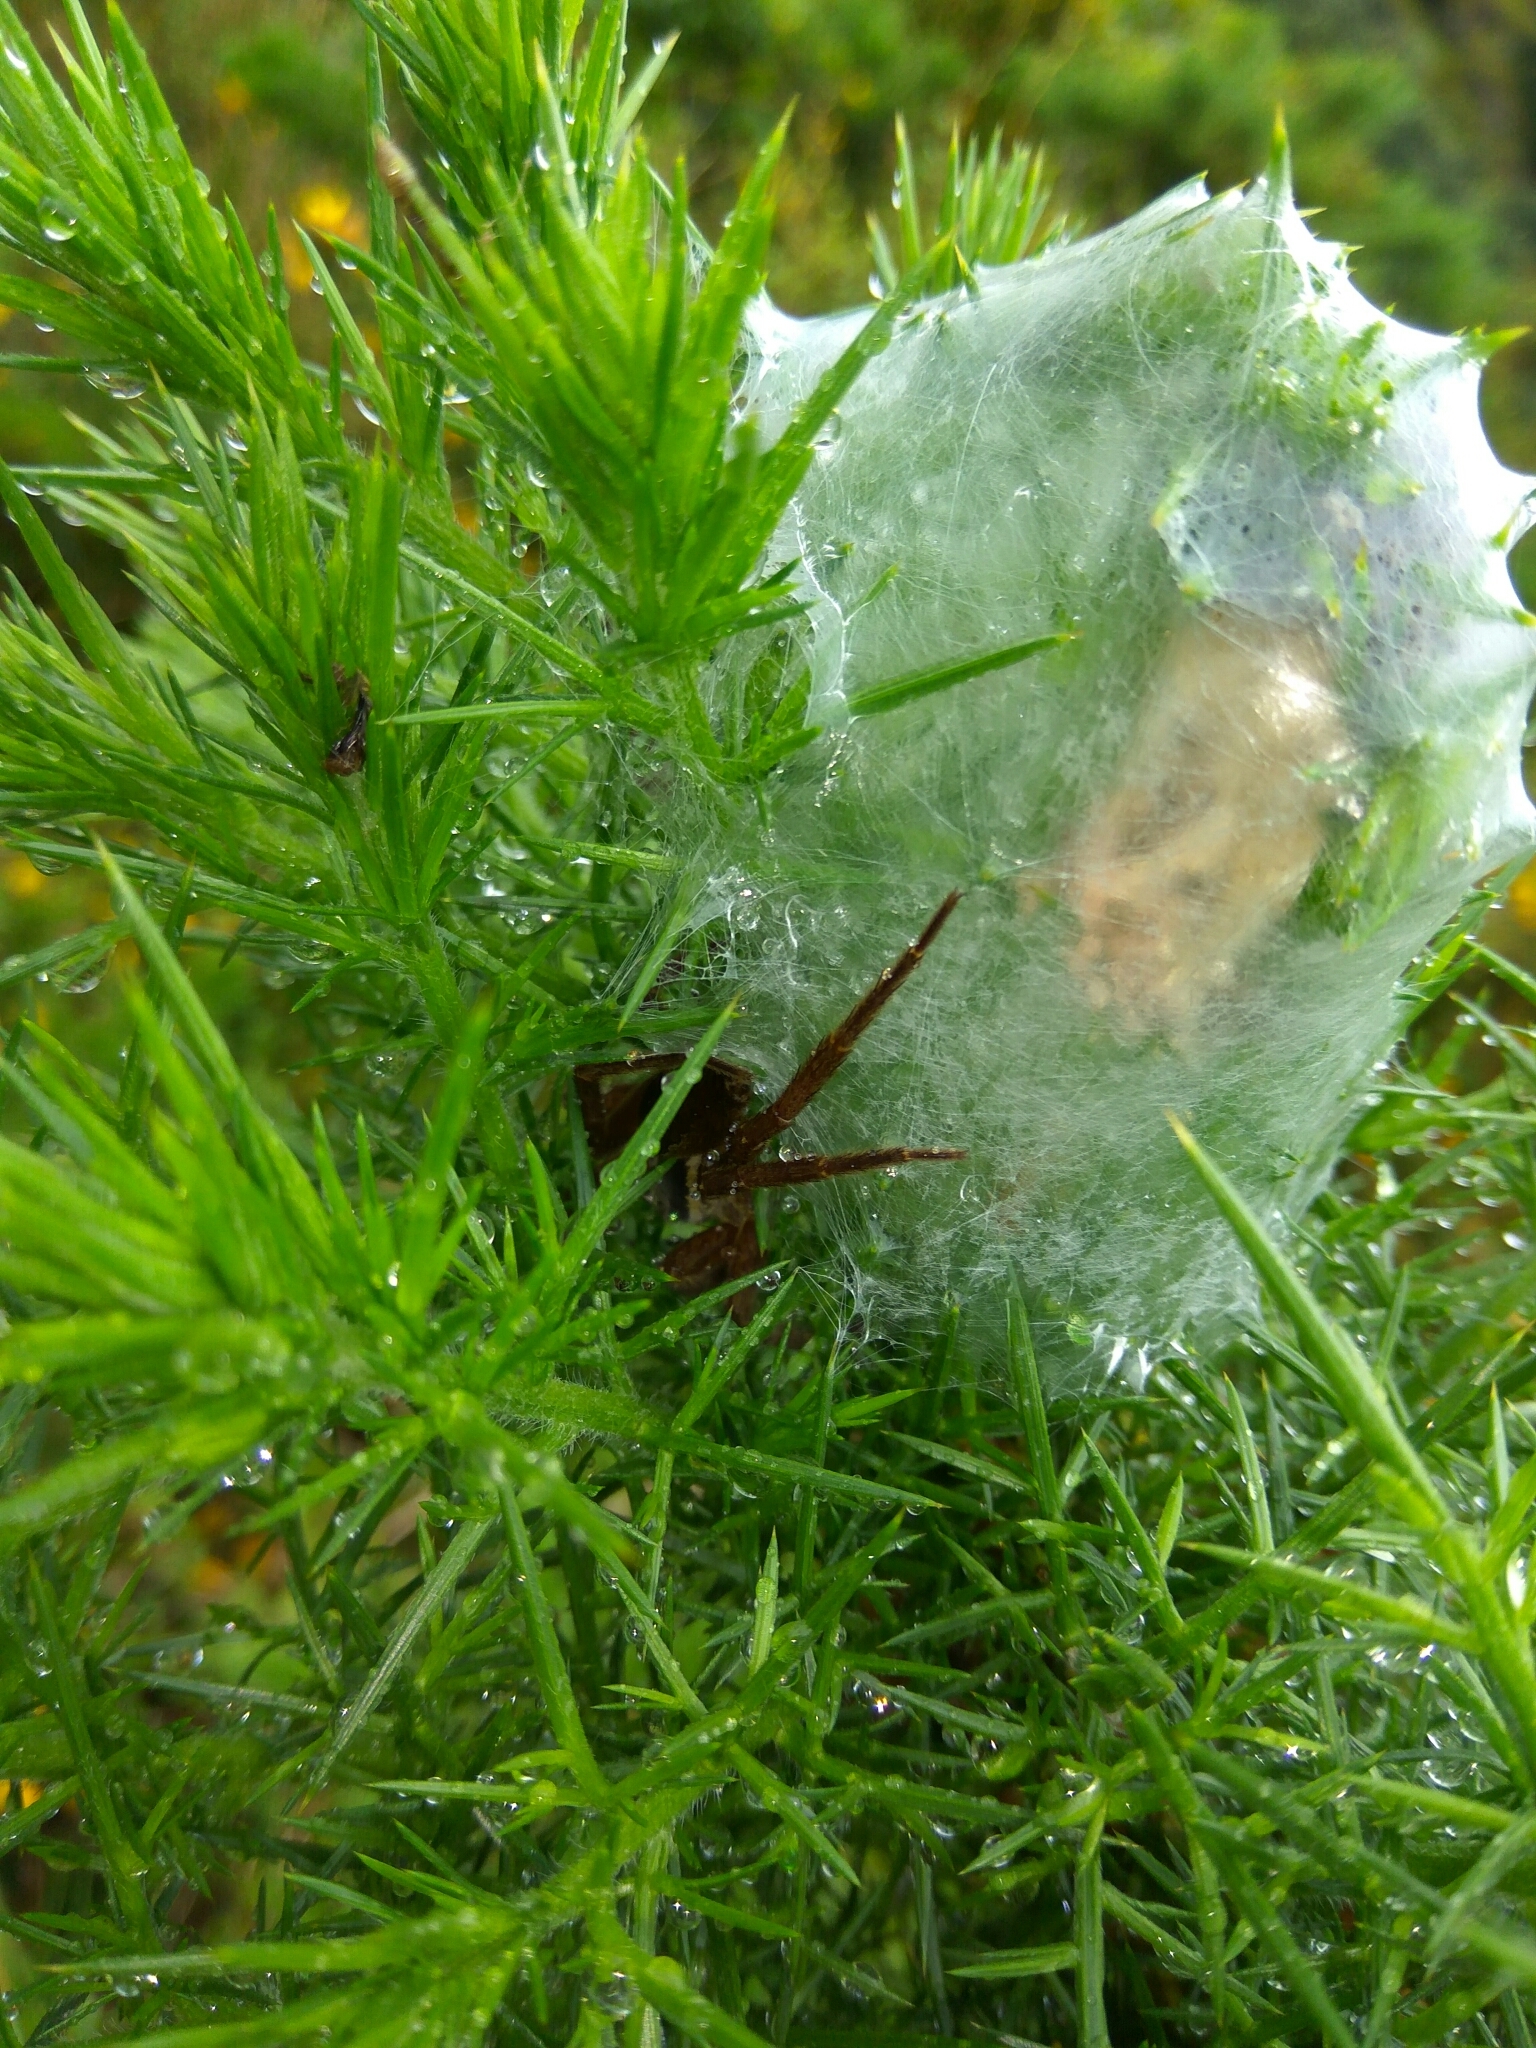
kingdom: Animalia
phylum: Arthropoda
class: Arachnida
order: Araneae
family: Pisauridae
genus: Dolomedes
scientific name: Dolomedes minor
